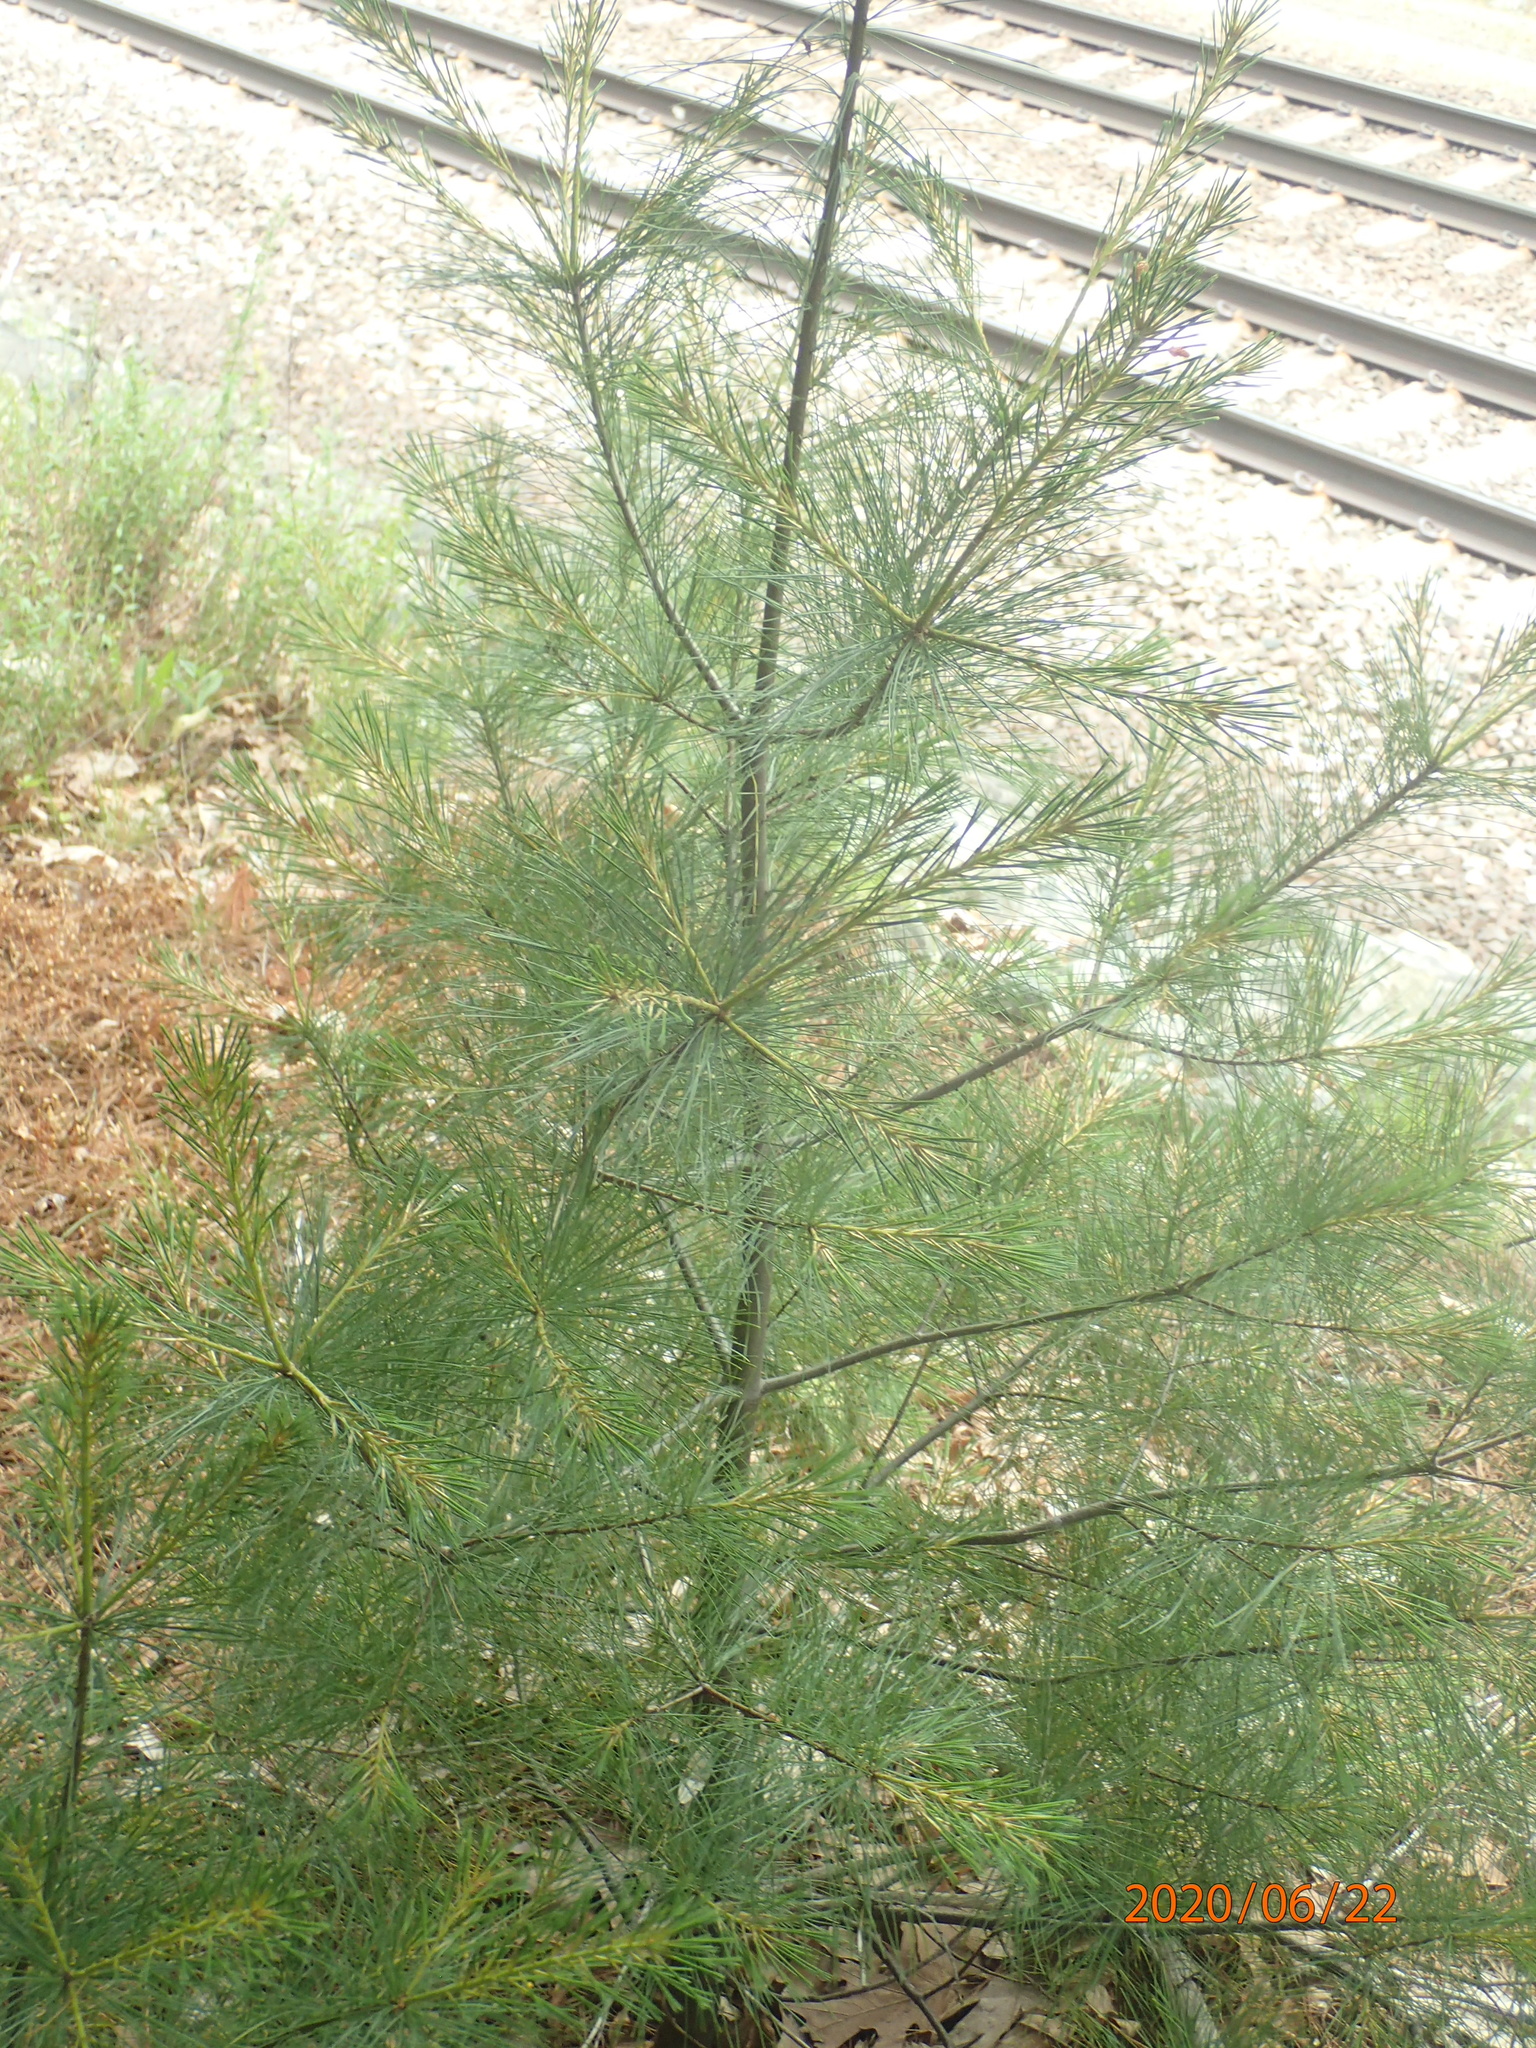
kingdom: Plantae
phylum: Tracheophyta
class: Pinopsida
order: Pinales
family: Pinaceae
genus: Pinus
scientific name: Pinus strobus
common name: Weymouth pine
